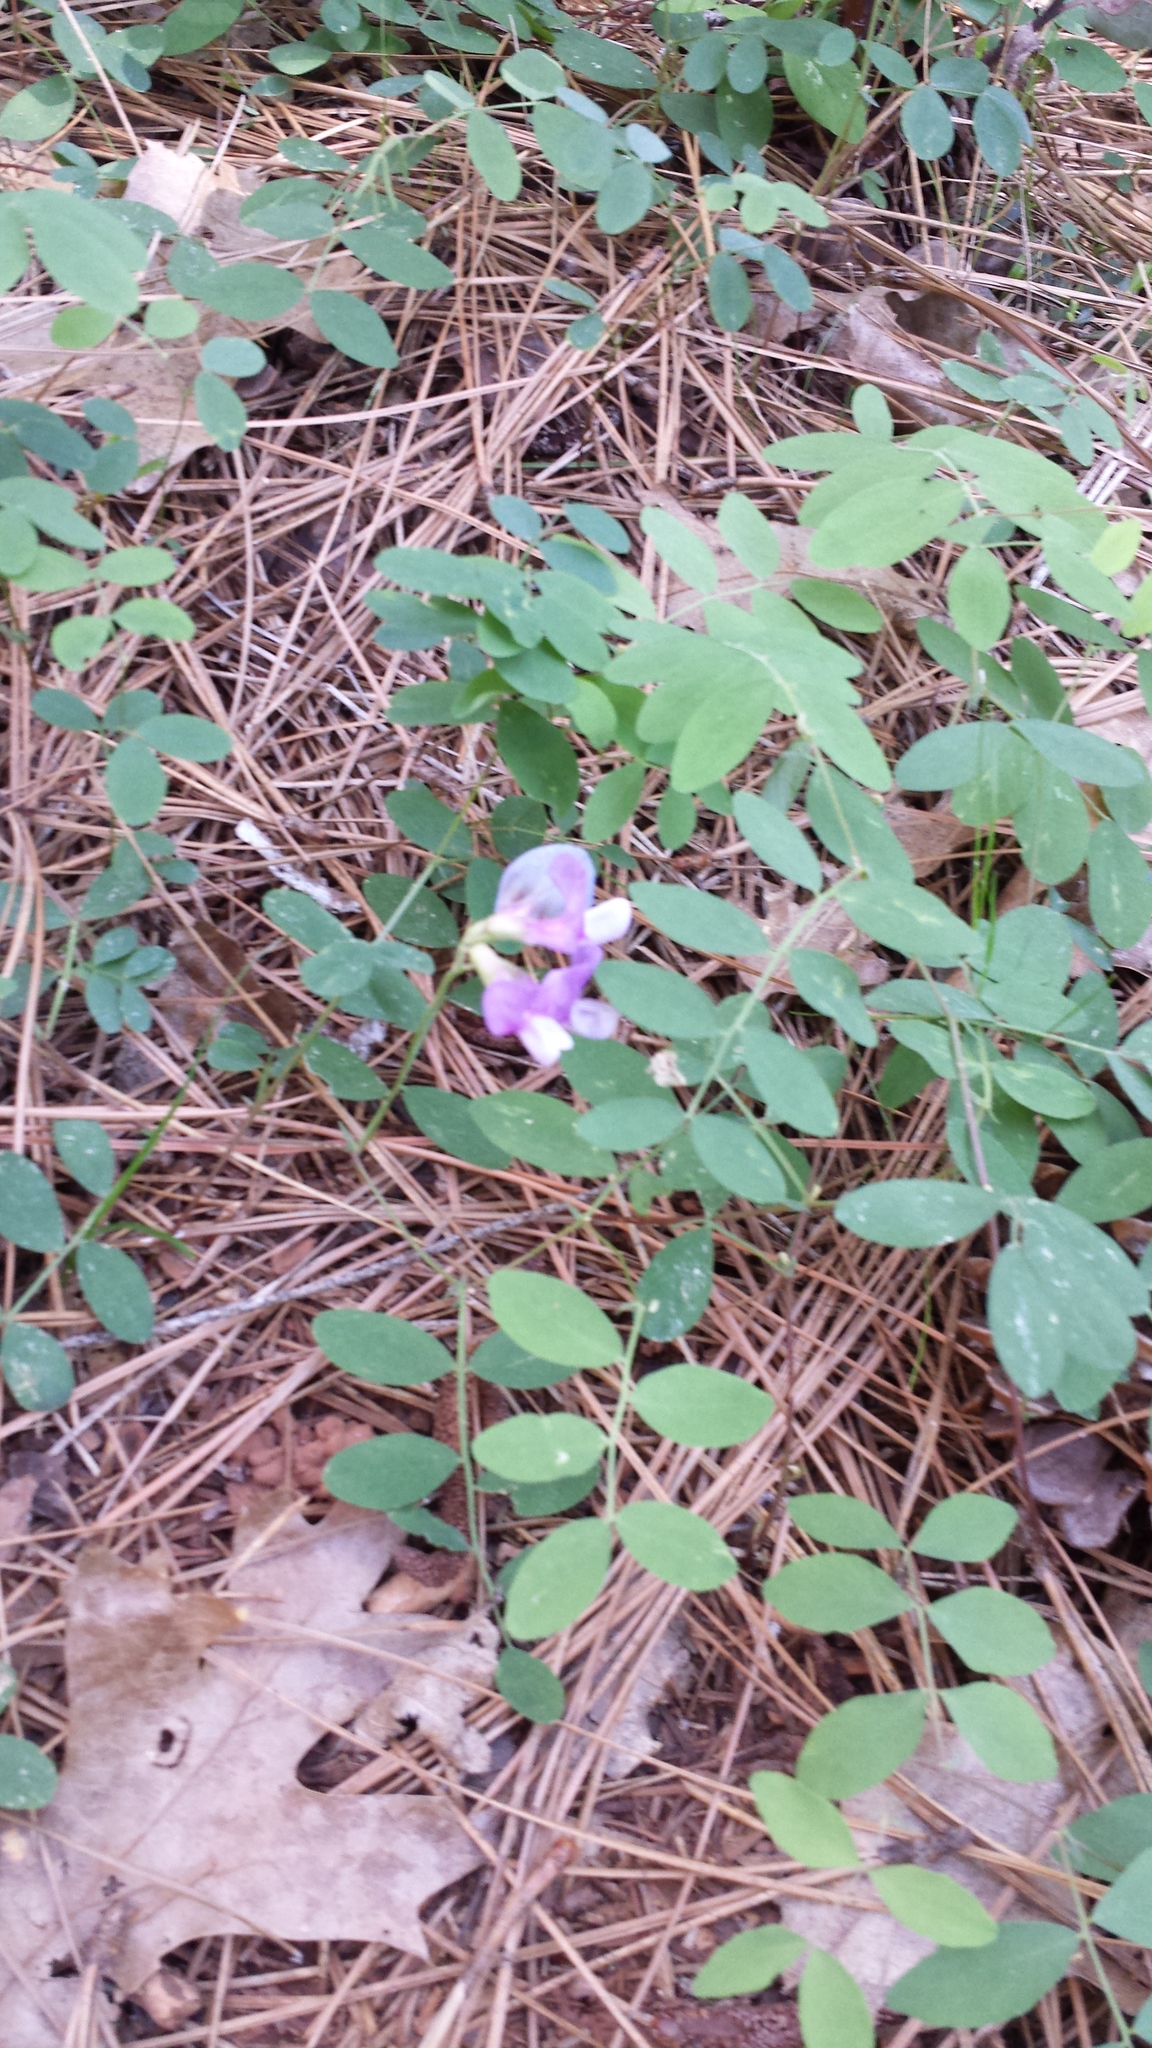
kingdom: Plantae
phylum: Tracheophyta
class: Magnoliopsida
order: Fabales
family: Fabaceae
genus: Lathyrus
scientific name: Lathyrus nevadensis
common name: Sierra nevada peavine
